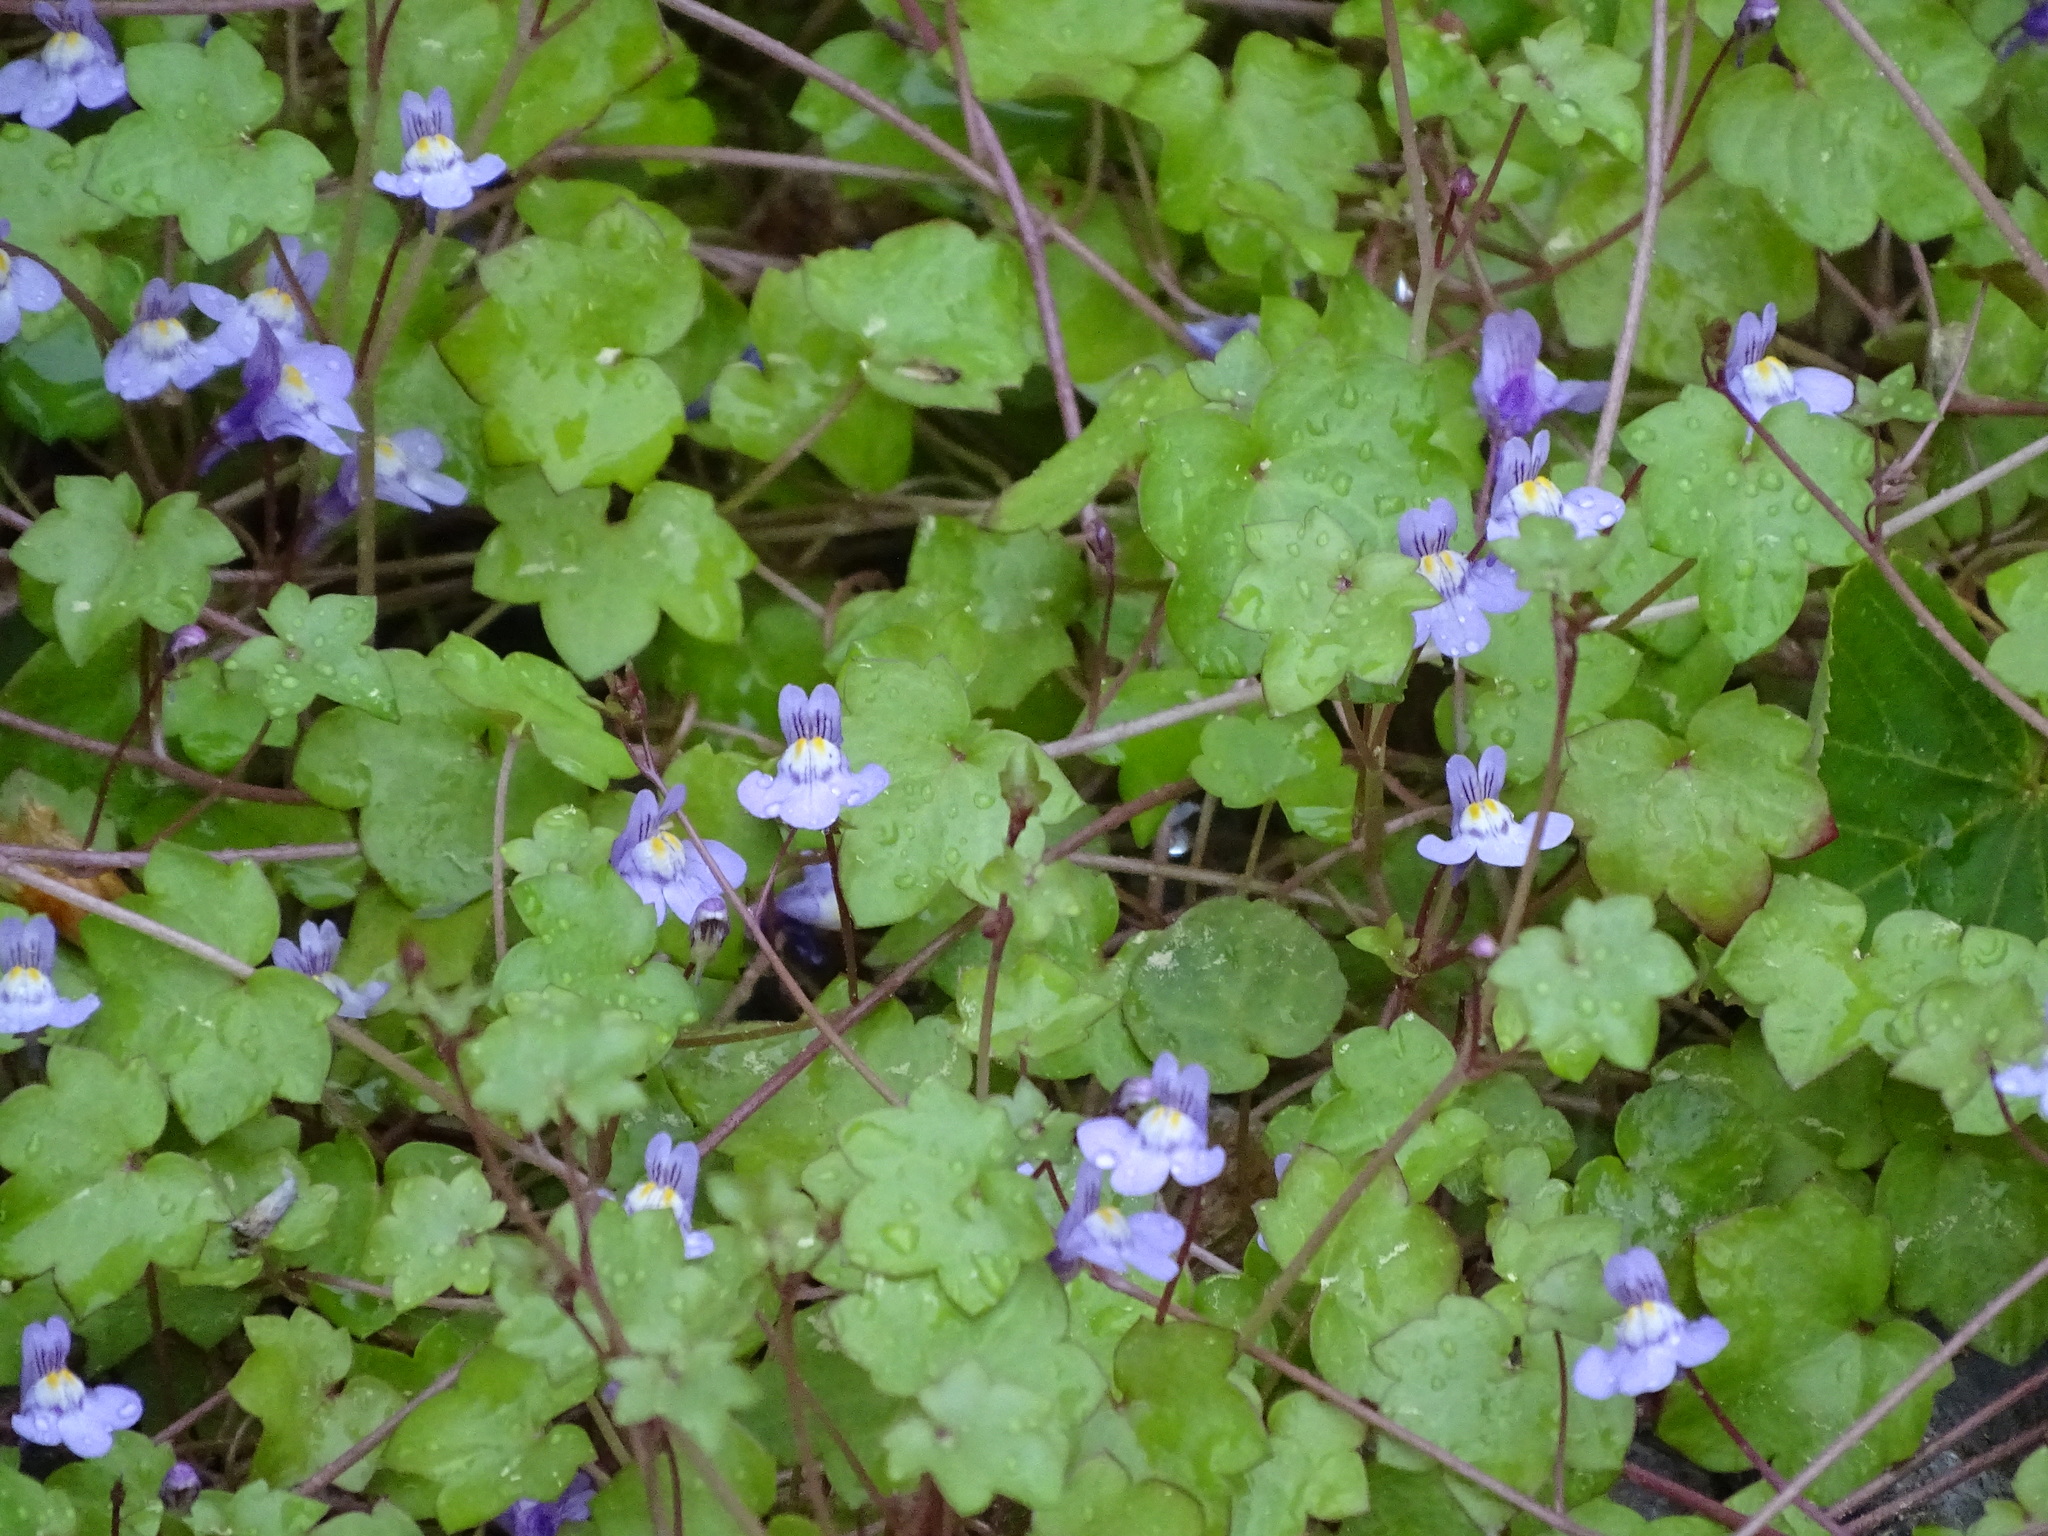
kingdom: Plantae
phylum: Tracheophyta
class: Magnoliopsida
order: Lamiales
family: Plantaginaceae
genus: Cymbalaria
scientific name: Cymbalaria muralis
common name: Ivy-leaved toadflax
